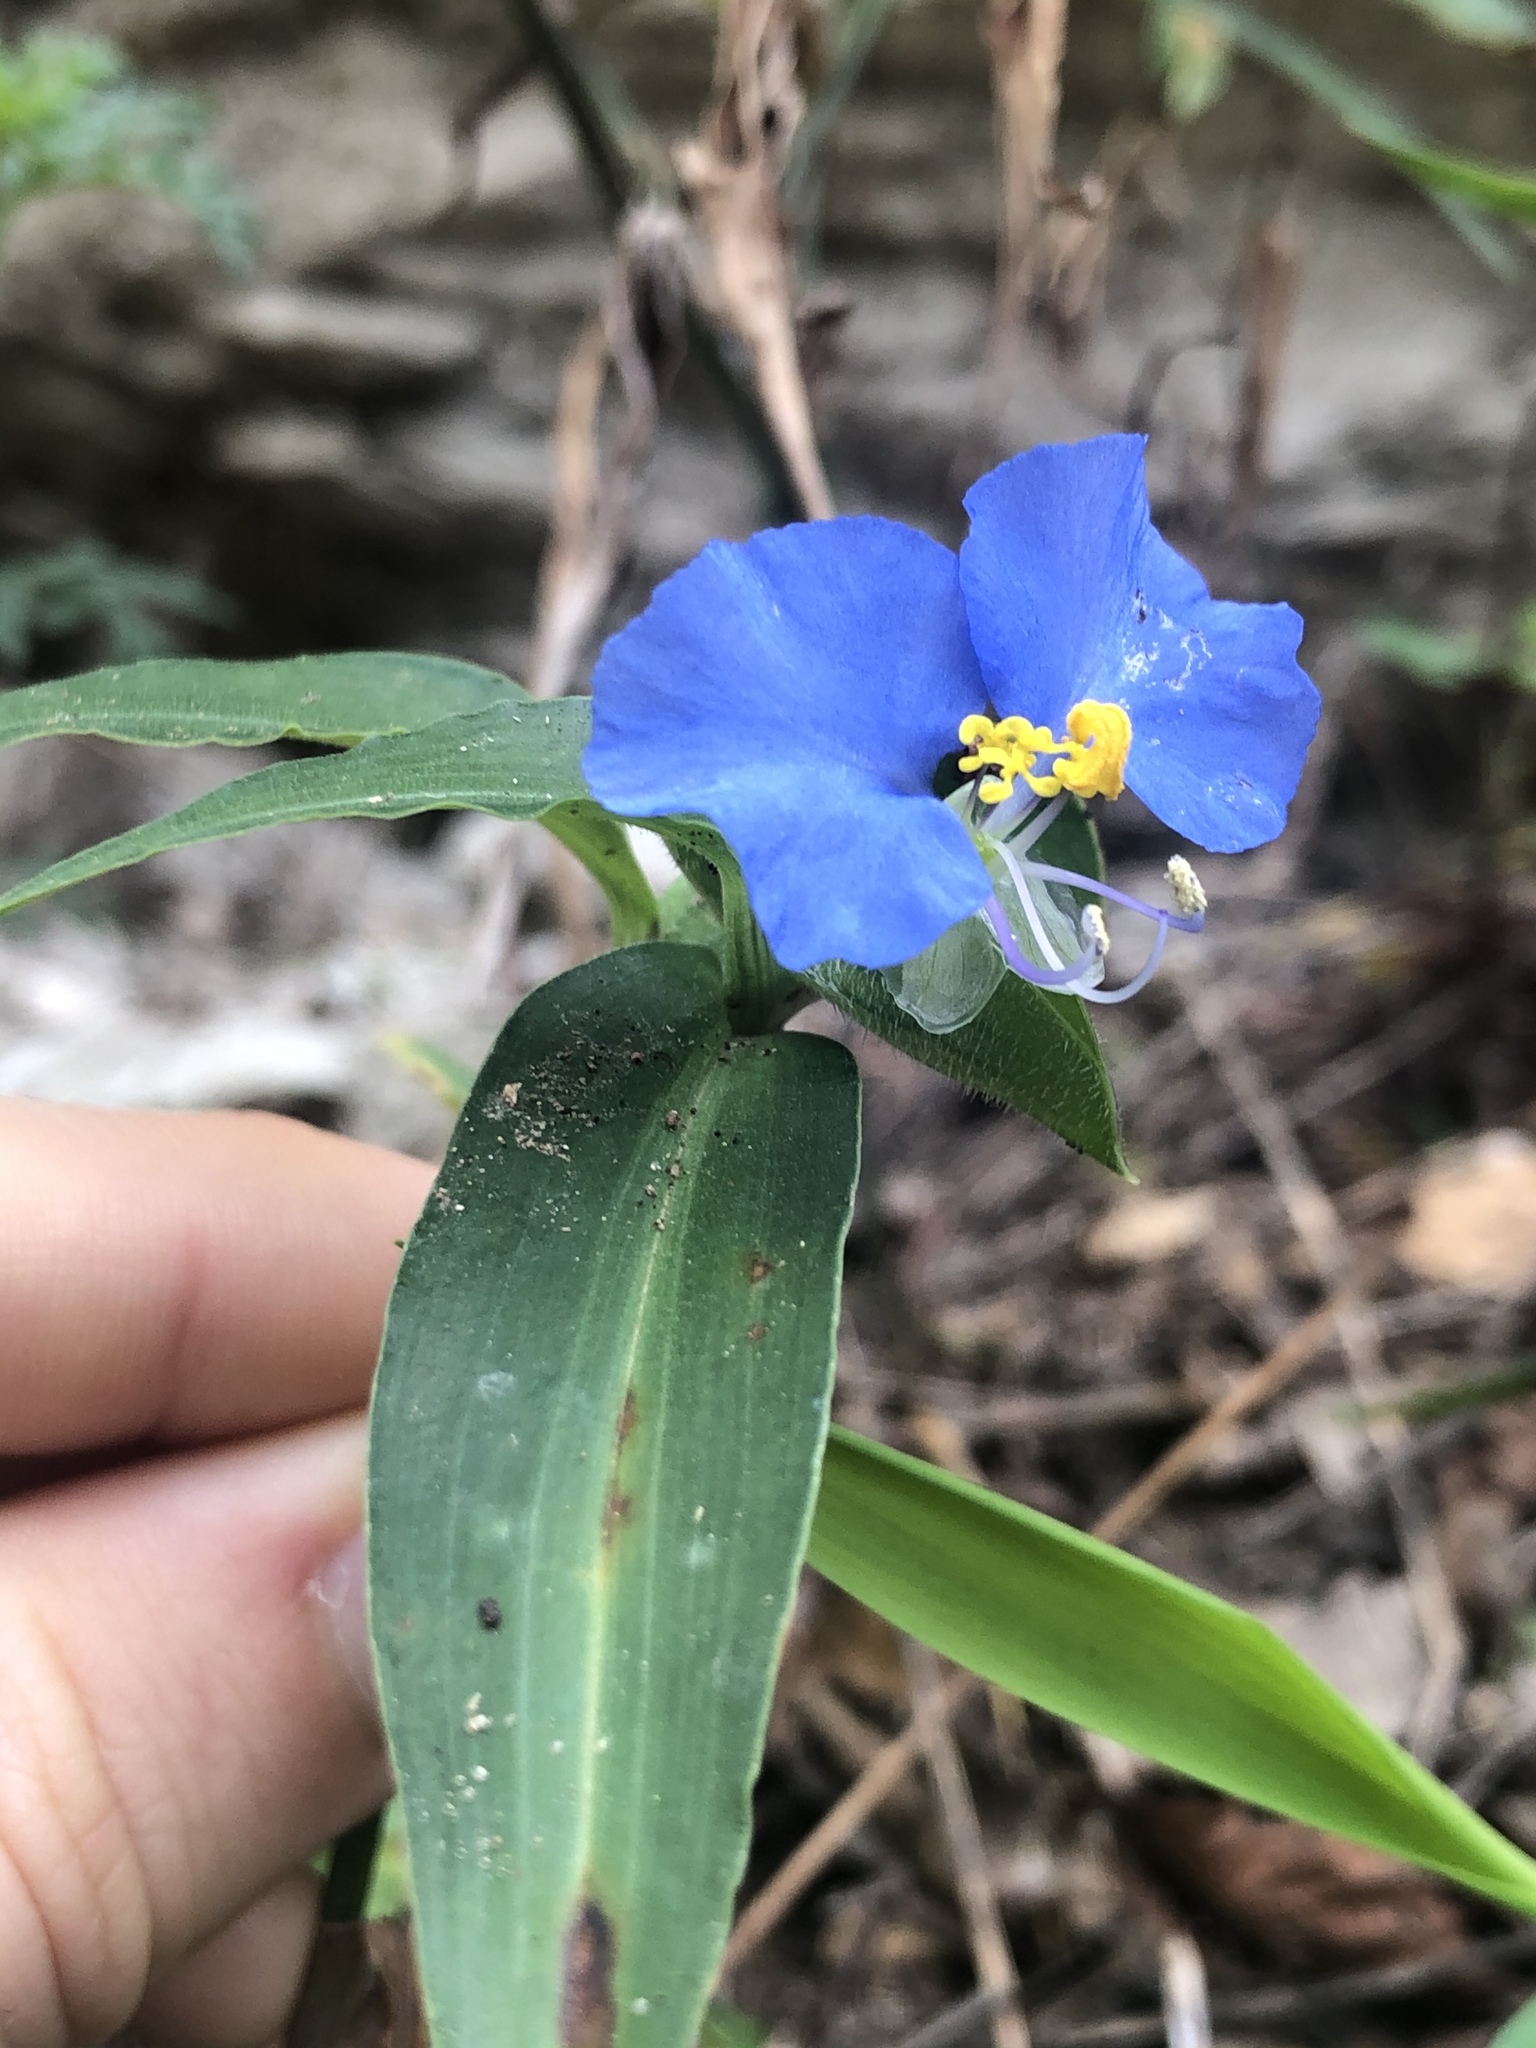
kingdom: Plantae
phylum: Tracheophyta
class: Liliopsida
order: Commelinales
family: Commelinaceae
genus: Commelina
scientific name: Commelina erecta
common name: Blousel blommetjie
